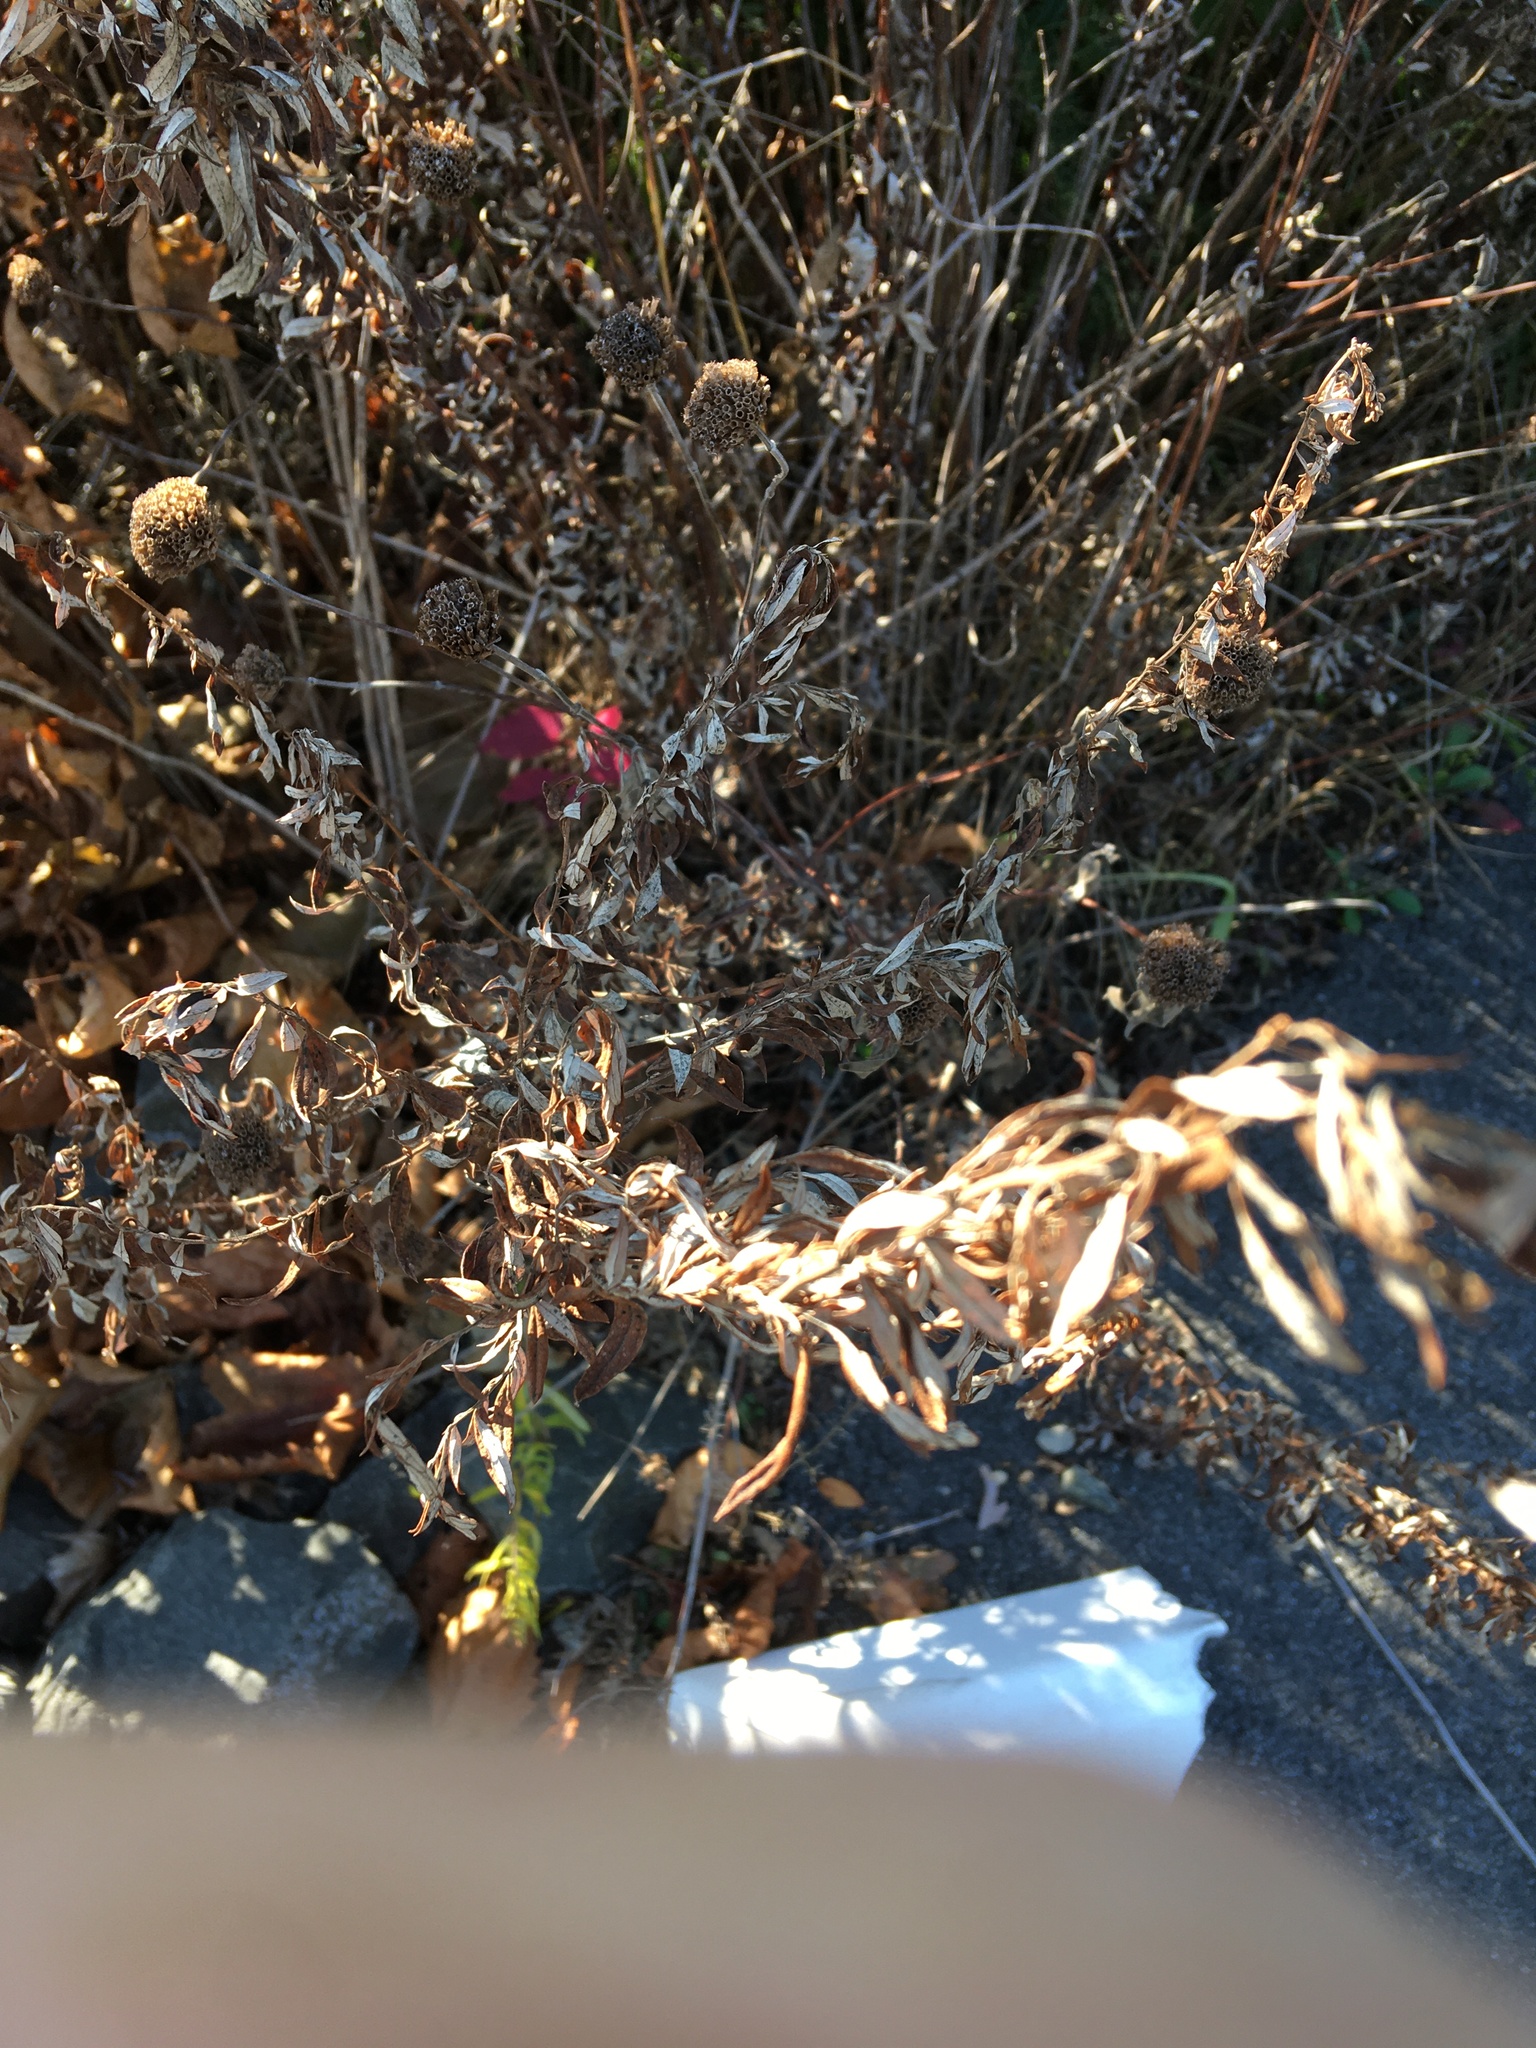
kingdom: Plantae
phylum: Tracheophyta
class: Magnoliopsida
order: Asterales
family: Asteraceae
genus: Artemisia
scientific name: Artemisia vulgaris
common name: Mugwort
